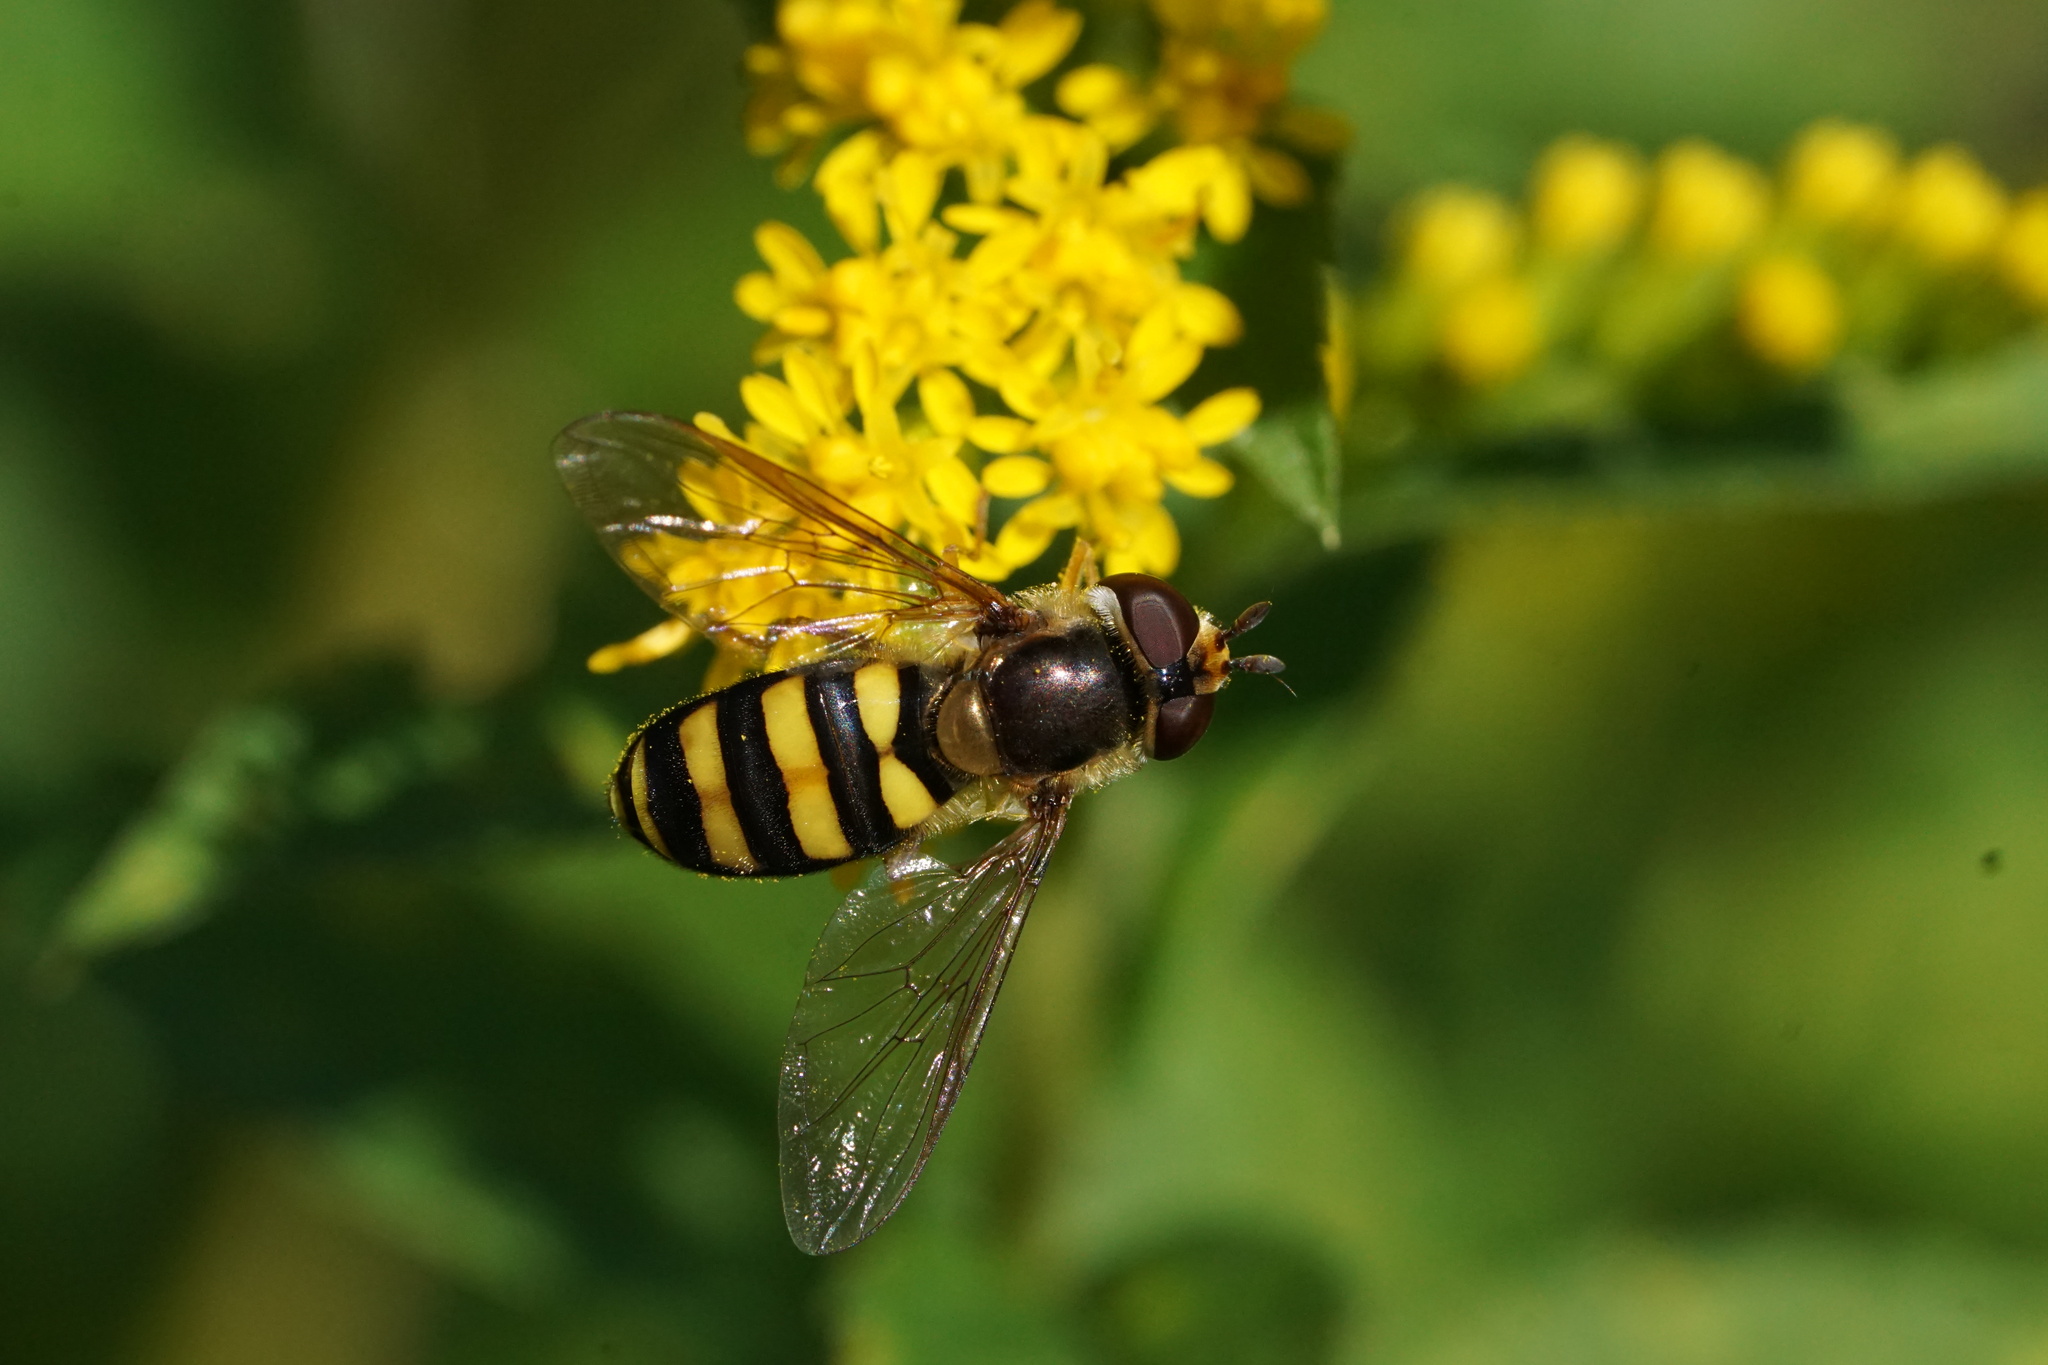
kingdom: Animalia
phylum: Arthropoda
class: Insecta
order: Diptera
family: Syrphidae
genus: Eupeodes
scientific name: Eupeodes
